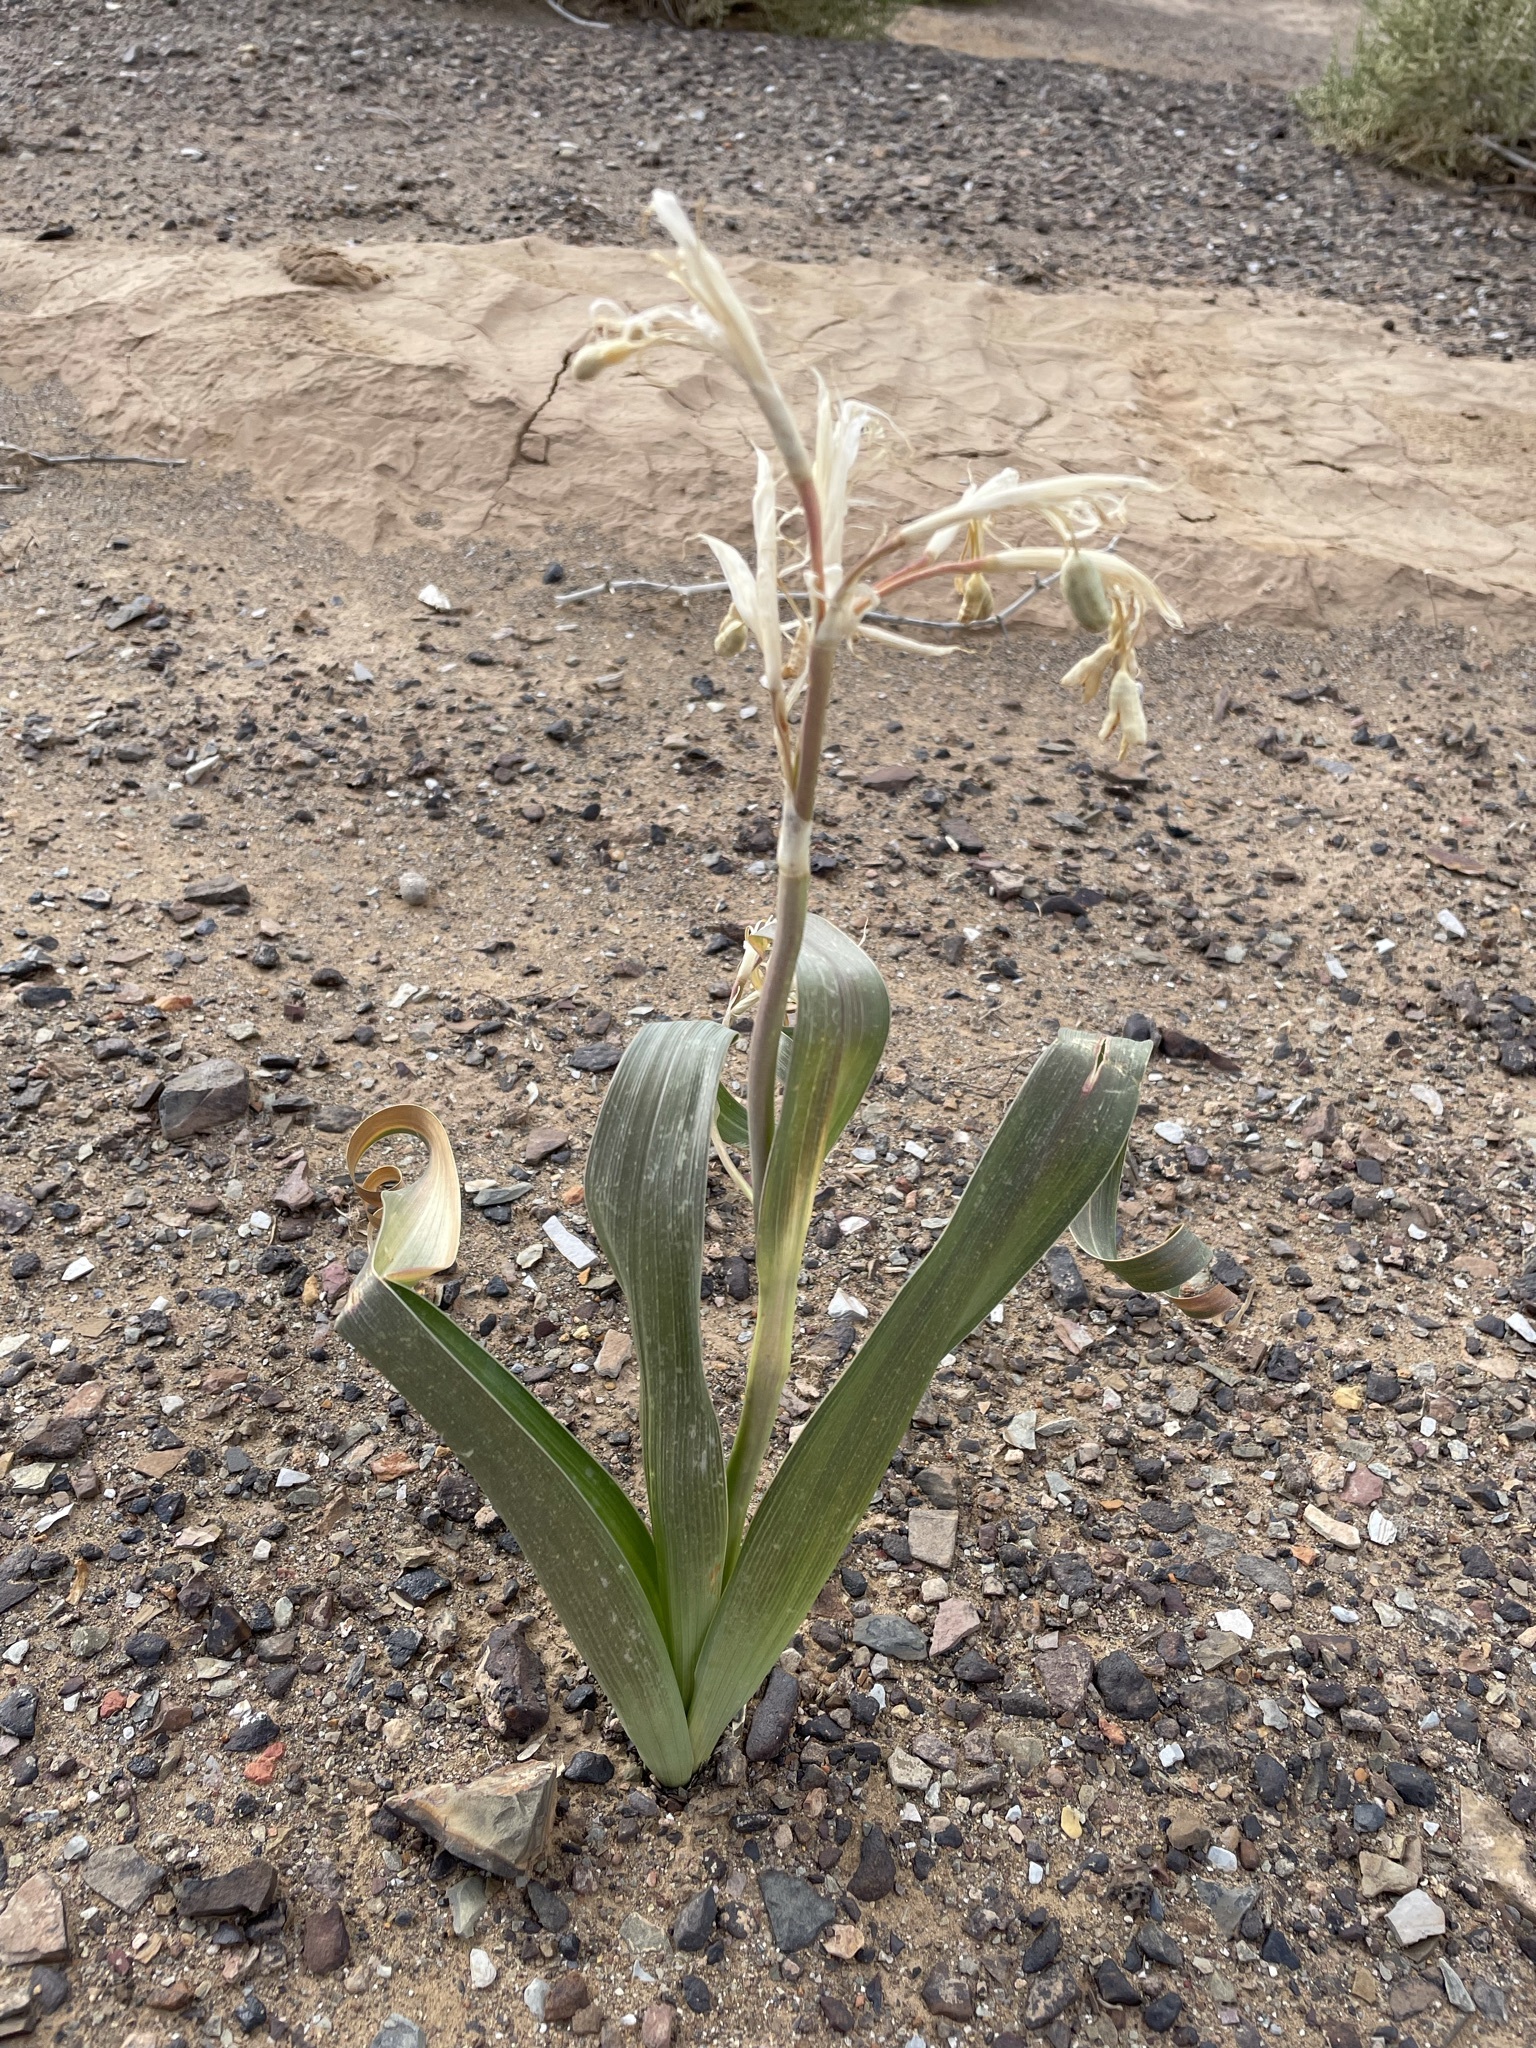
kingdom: Plantae
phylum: Tracheophyta
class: Liliopsida
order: Asparagales
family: Iridaceae
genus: Moraea
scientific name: Moraea speciosa
